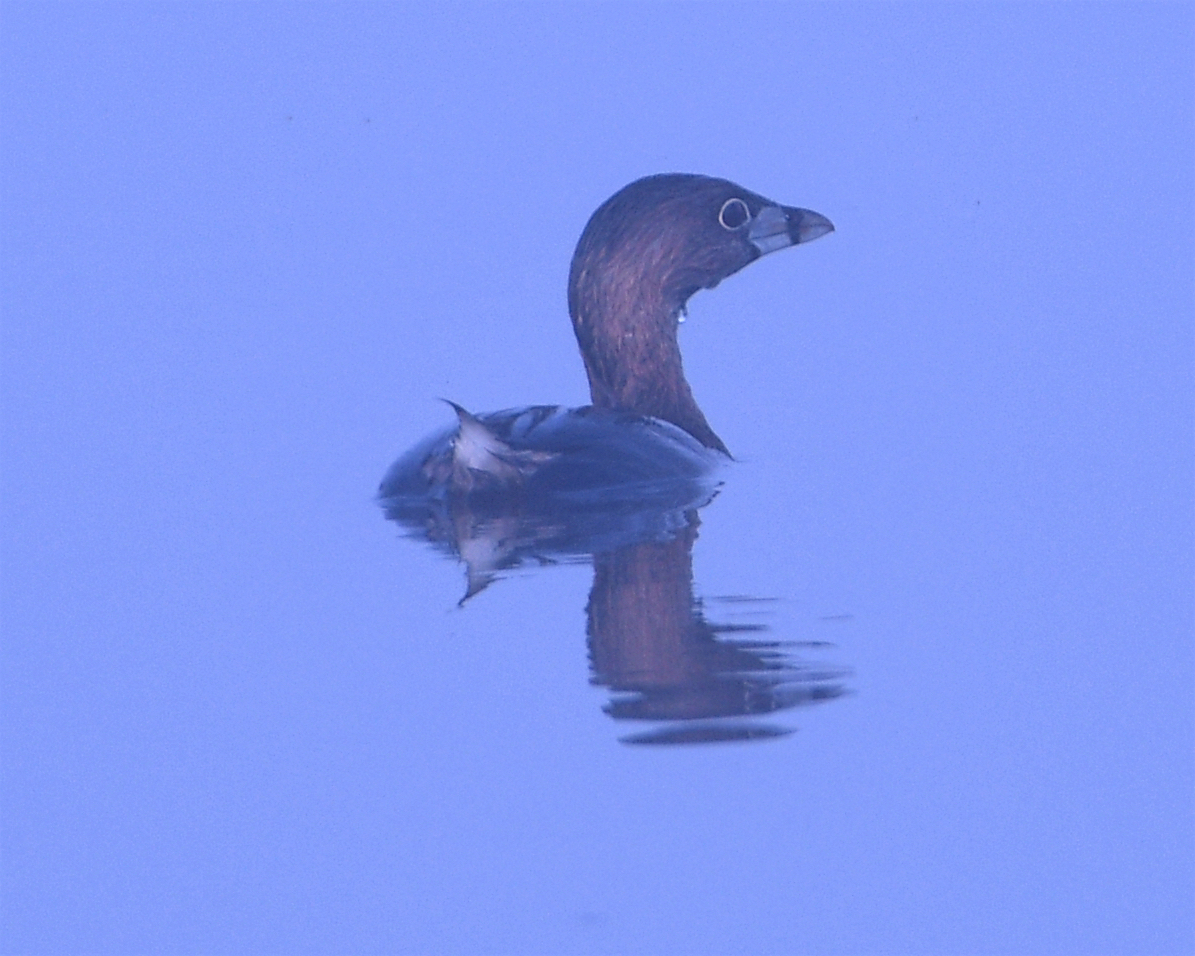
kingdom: Animalia
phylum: Chordata
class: Aves
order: Podicipediformes
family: Podicipedidae
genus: Podilymbus
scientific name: Podilymbus podiceps
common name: Pied-billed grebe
